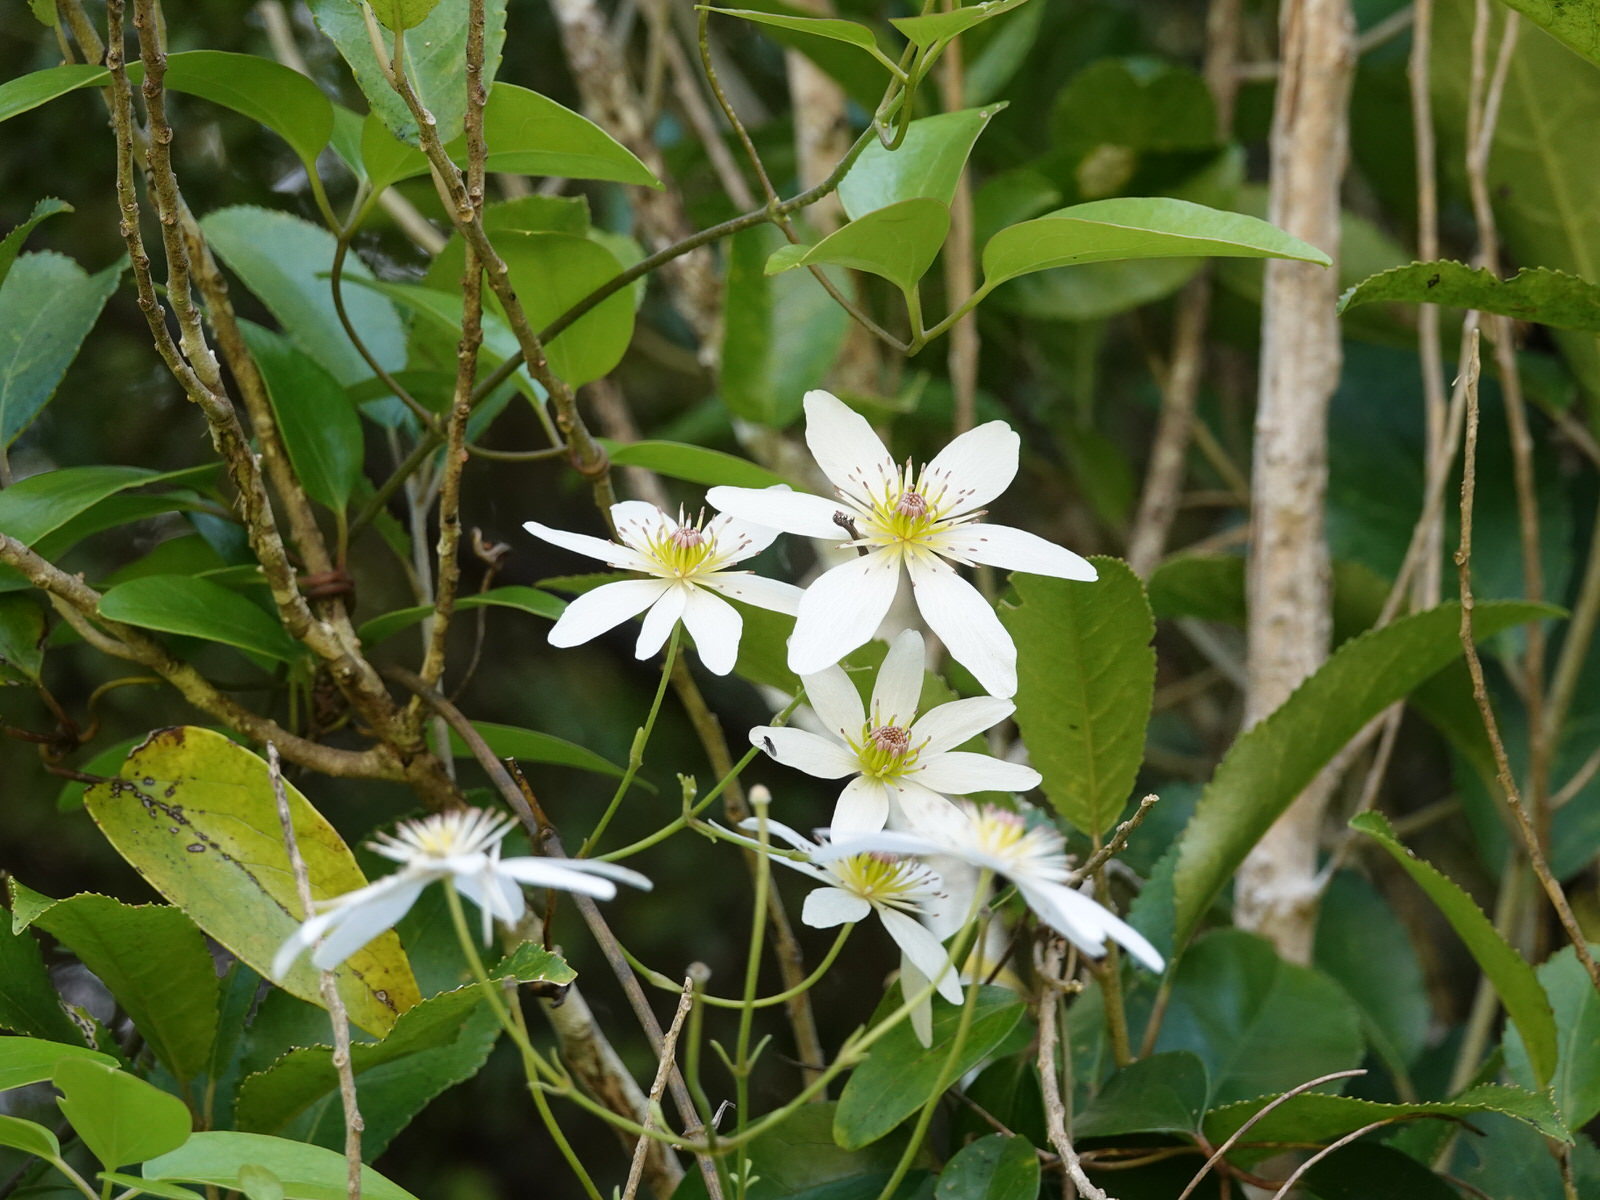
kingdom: Plantae
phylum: Tracheophyta
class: Magnoliopsida
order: Ranunculales
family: Ranunculaceae
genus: Clematis
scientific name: Clematis paniculata
